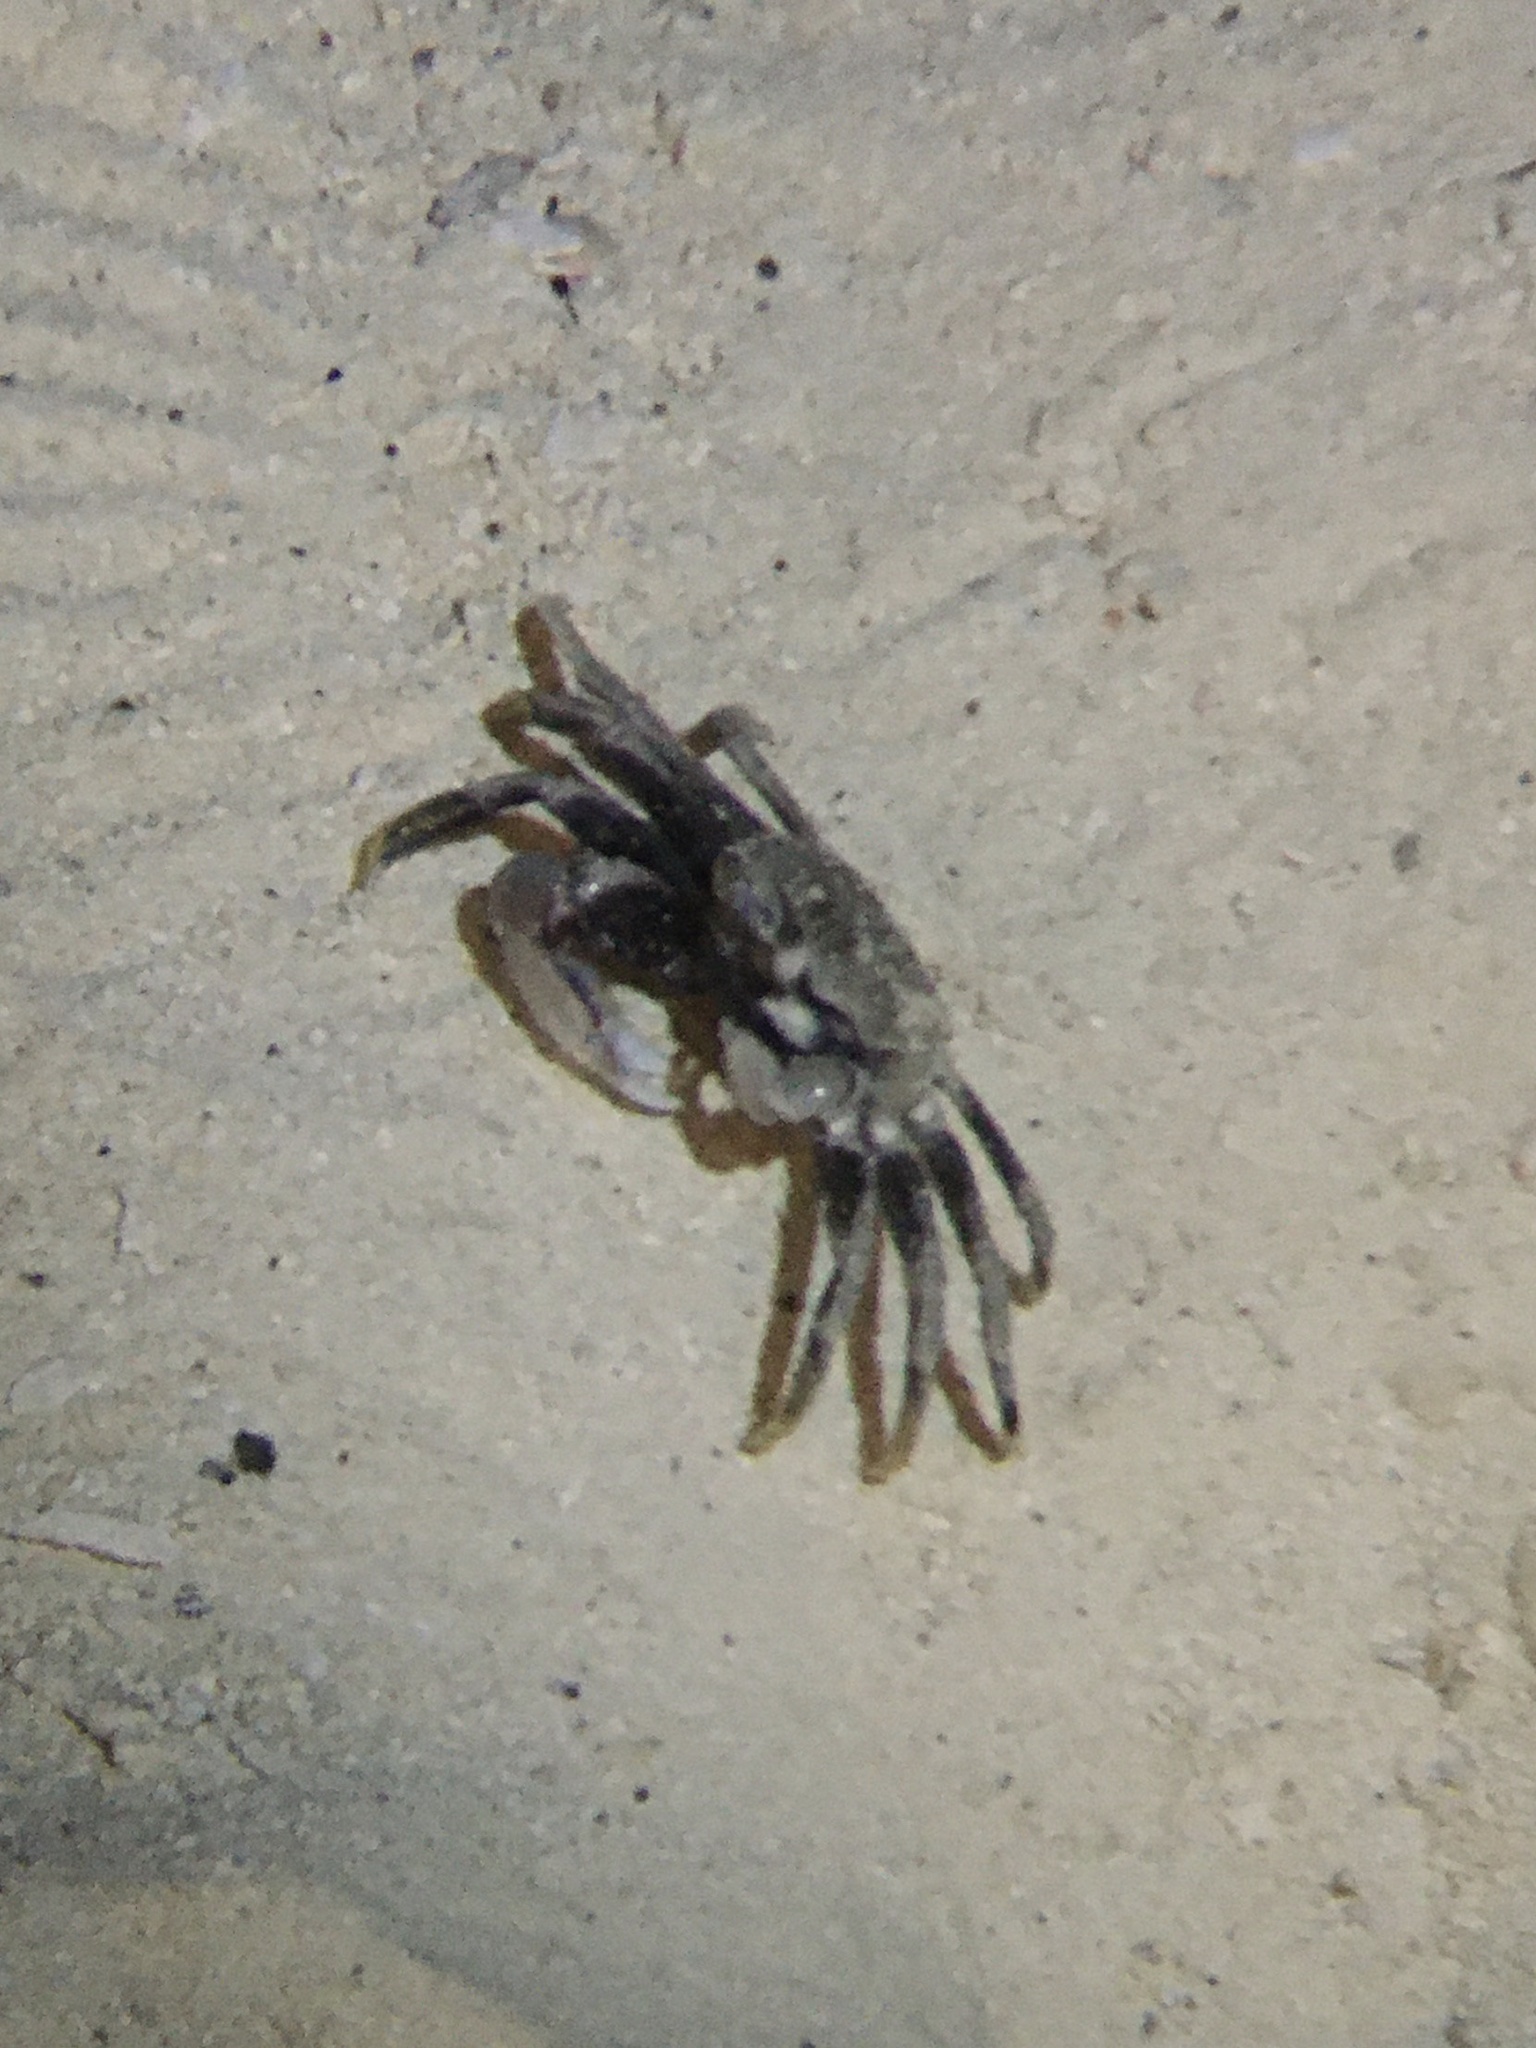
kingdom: Animalia
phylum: Arthropoda
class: Malacostraca
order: Decapoda
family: Ocypodidae
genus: Ocypode
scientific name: Ocypode ceratophthalmus
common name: Indo-pacific ghost crab
